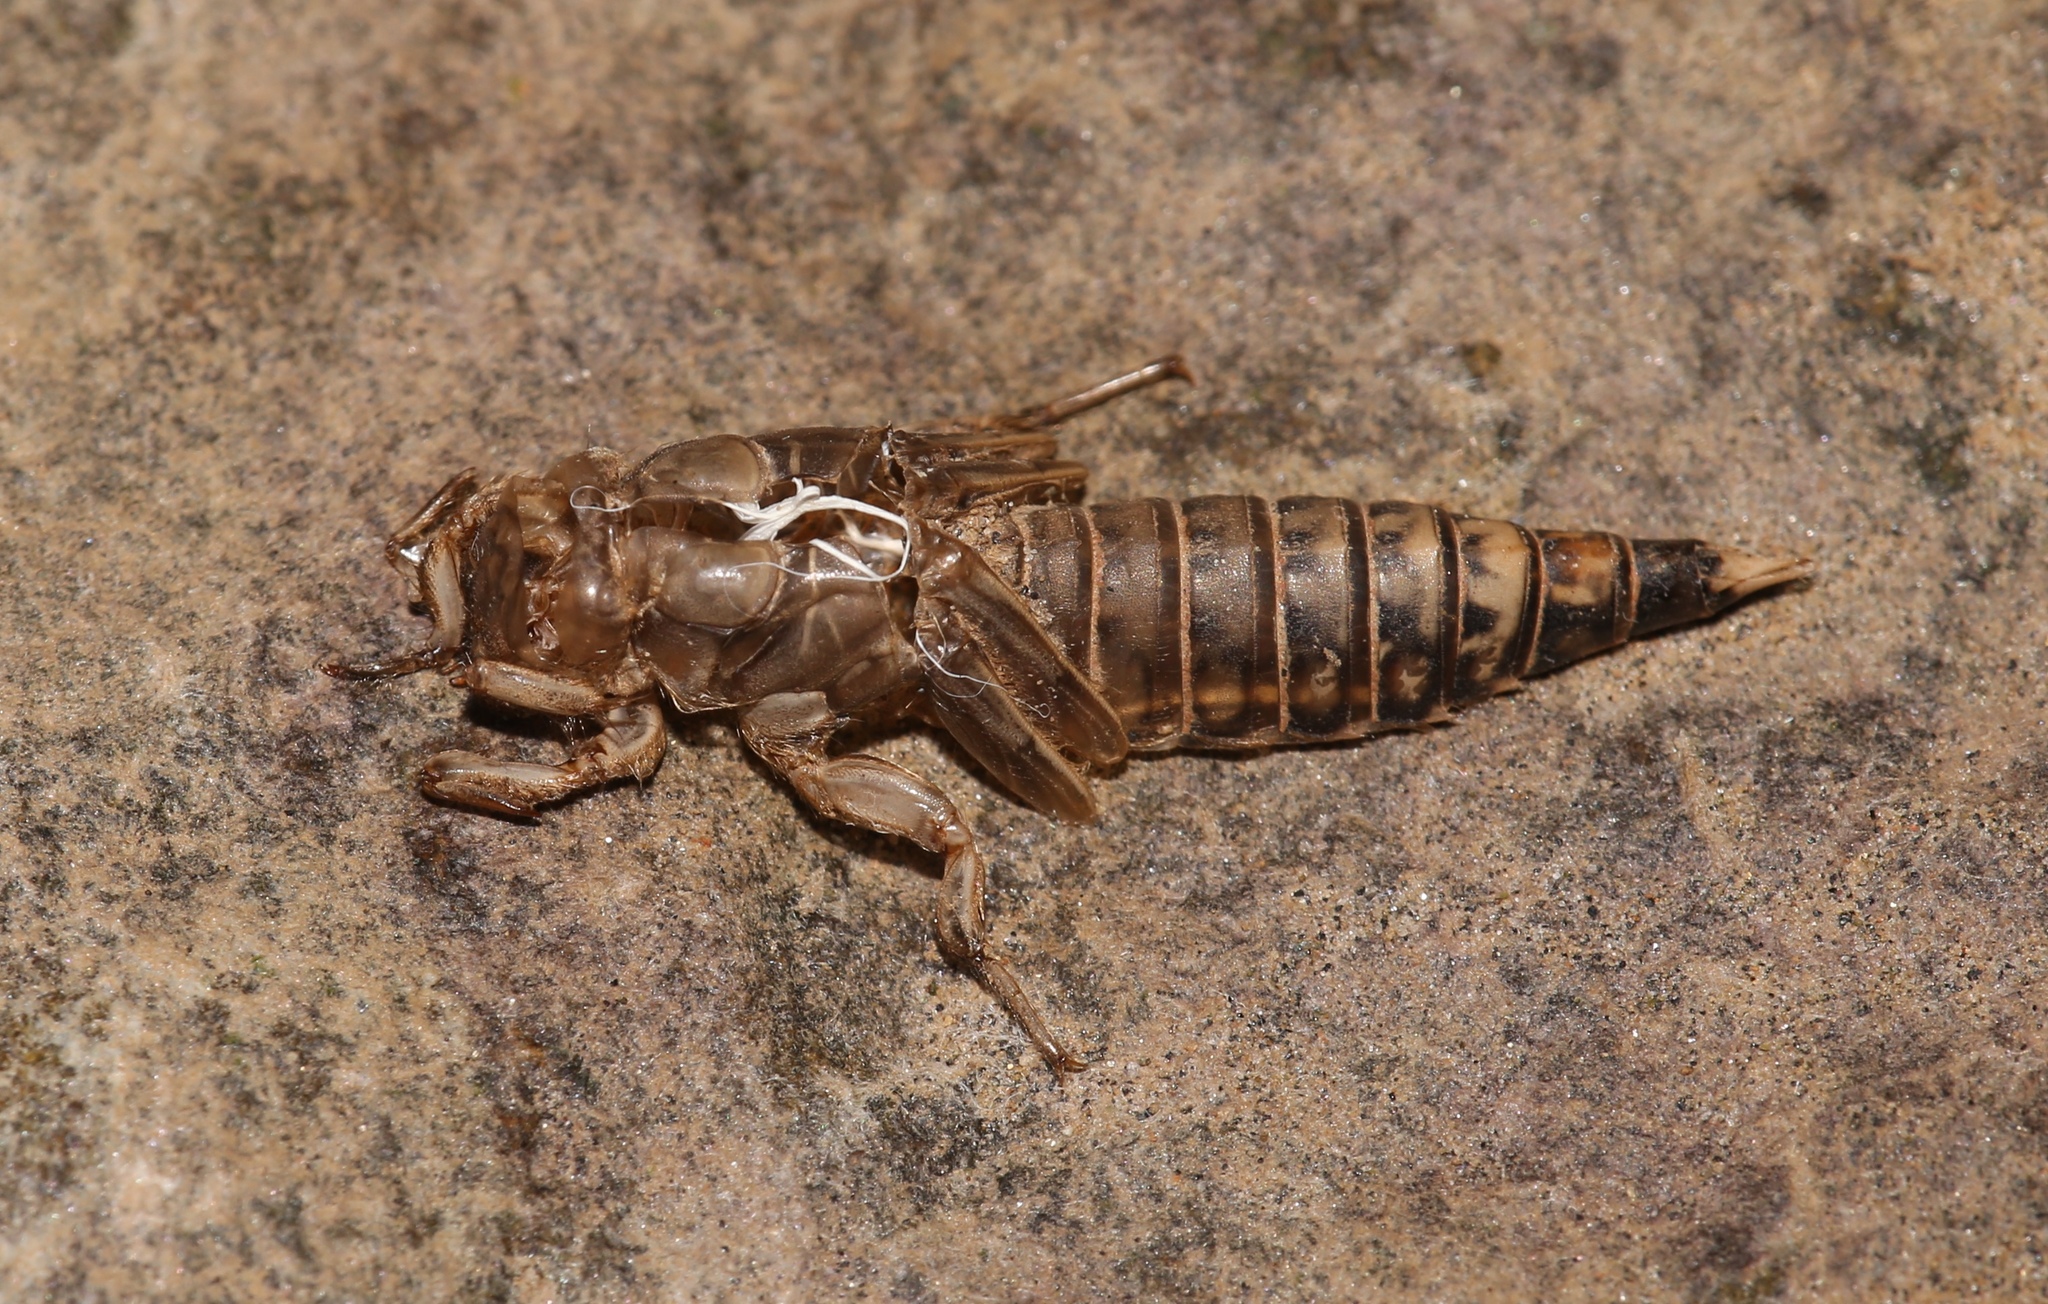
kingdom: Animalia
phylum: Arthropoda
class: Insecta
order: Odonata
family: Gomphidae
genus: Progomphus
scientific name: Progomphus obscurus
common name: Common sanddragon
